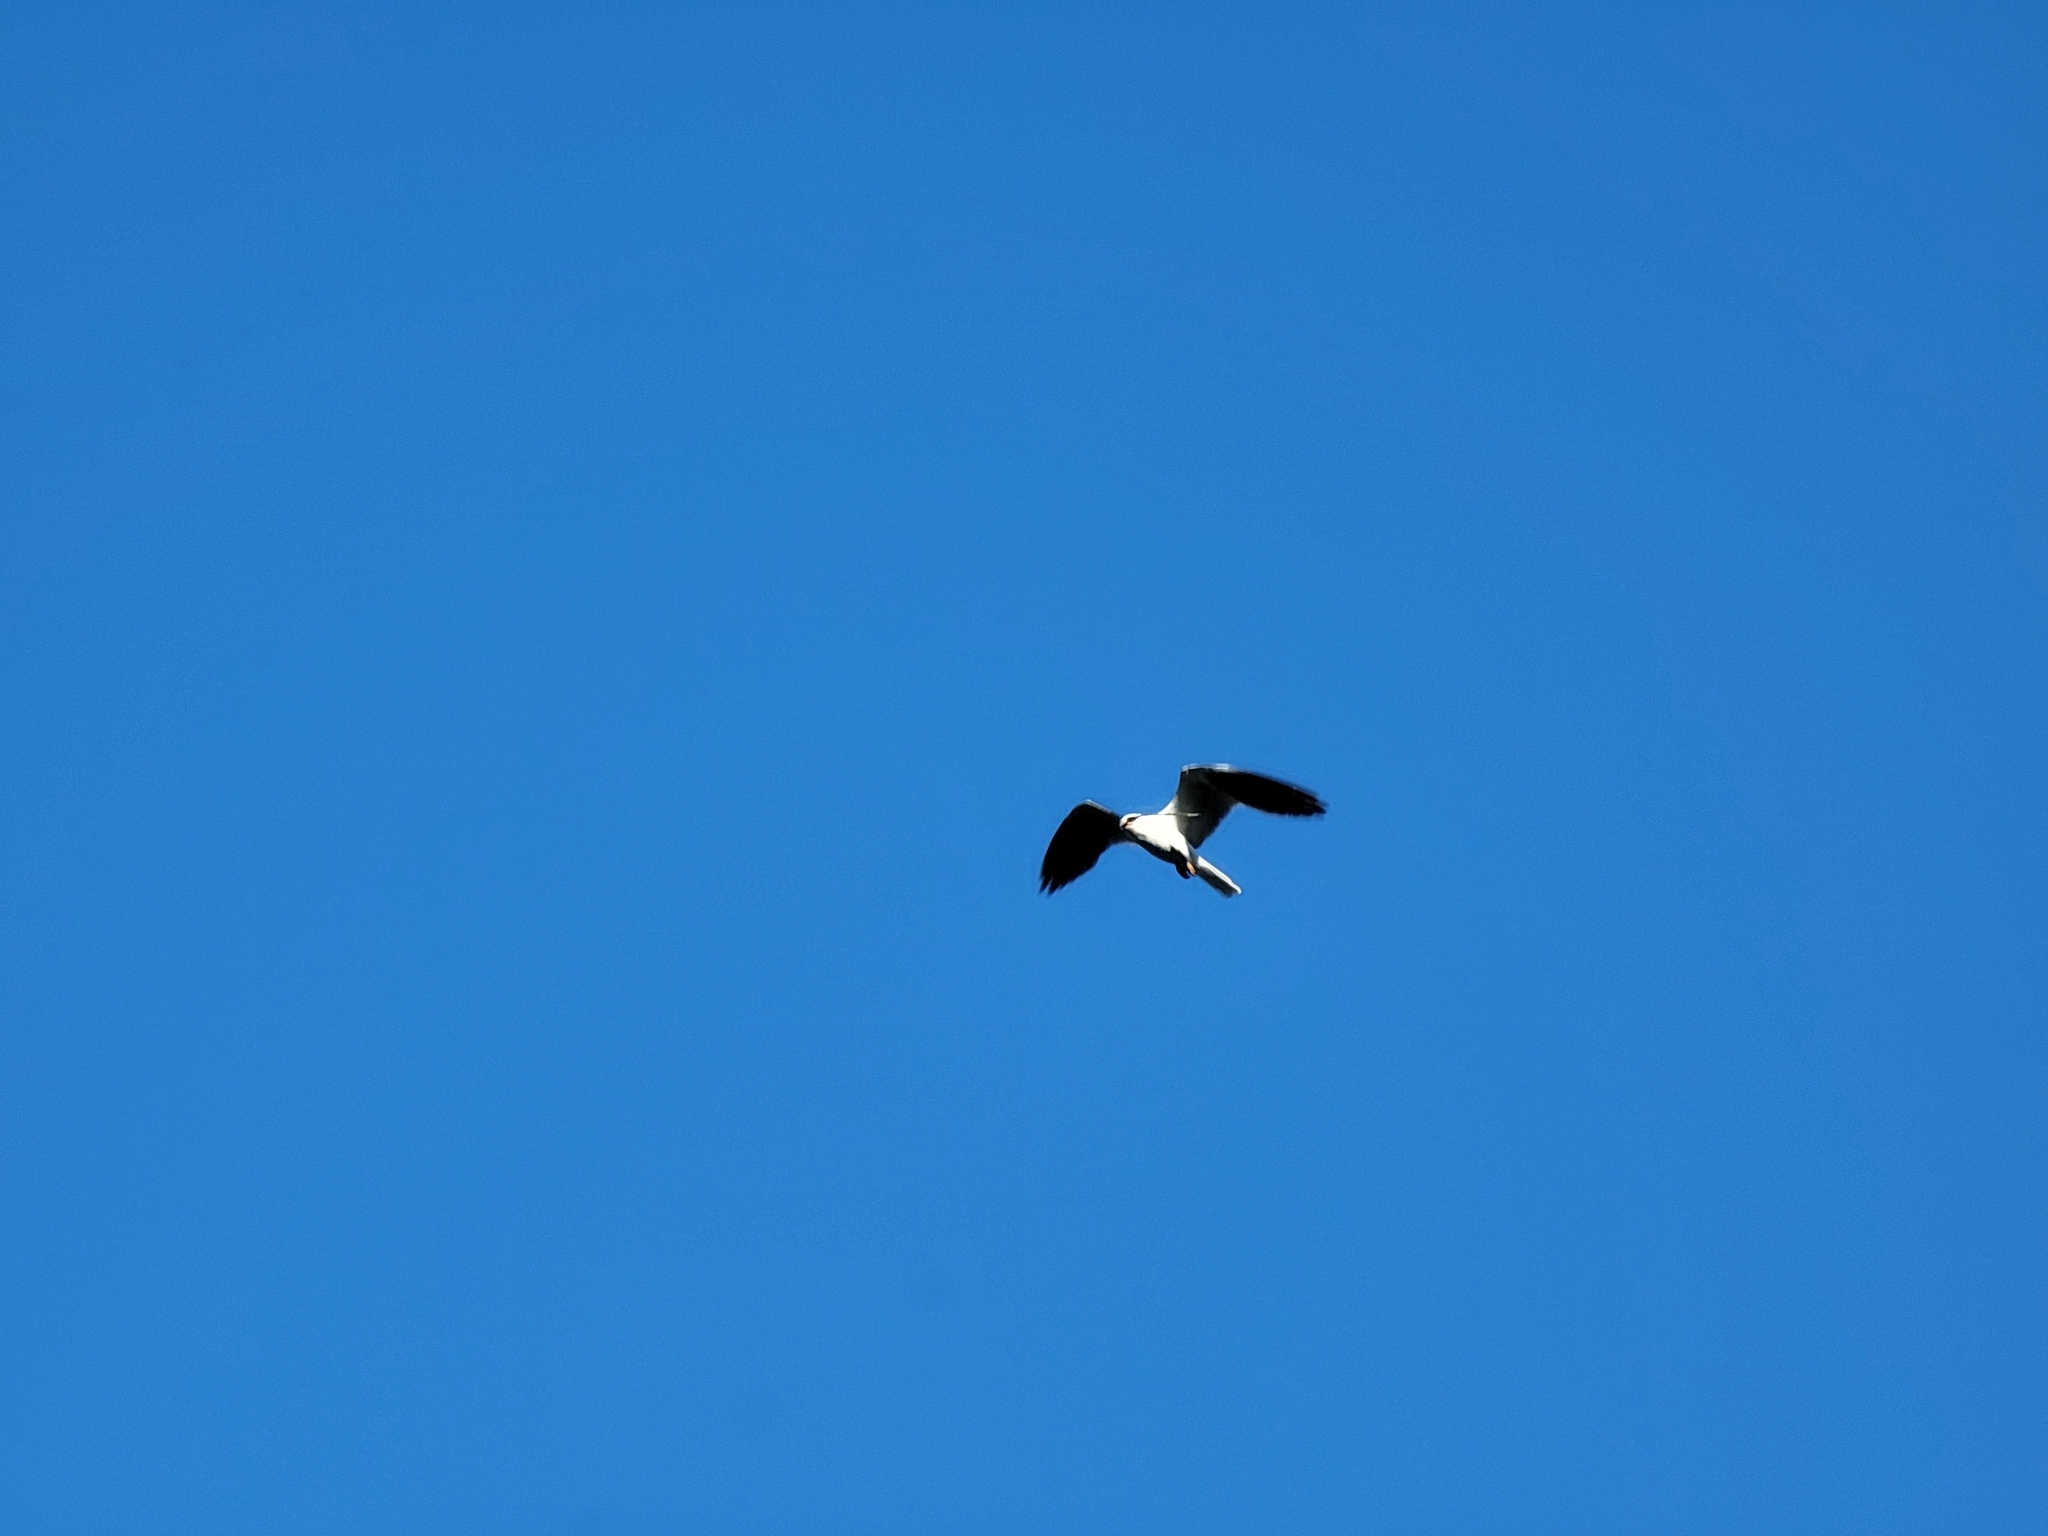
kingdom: Animalia
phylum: Chordata
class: Aves
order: Accipitriformes
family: Accipitridae
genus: Elanus
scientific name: Elanus leucurus
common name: White-tailed kite
